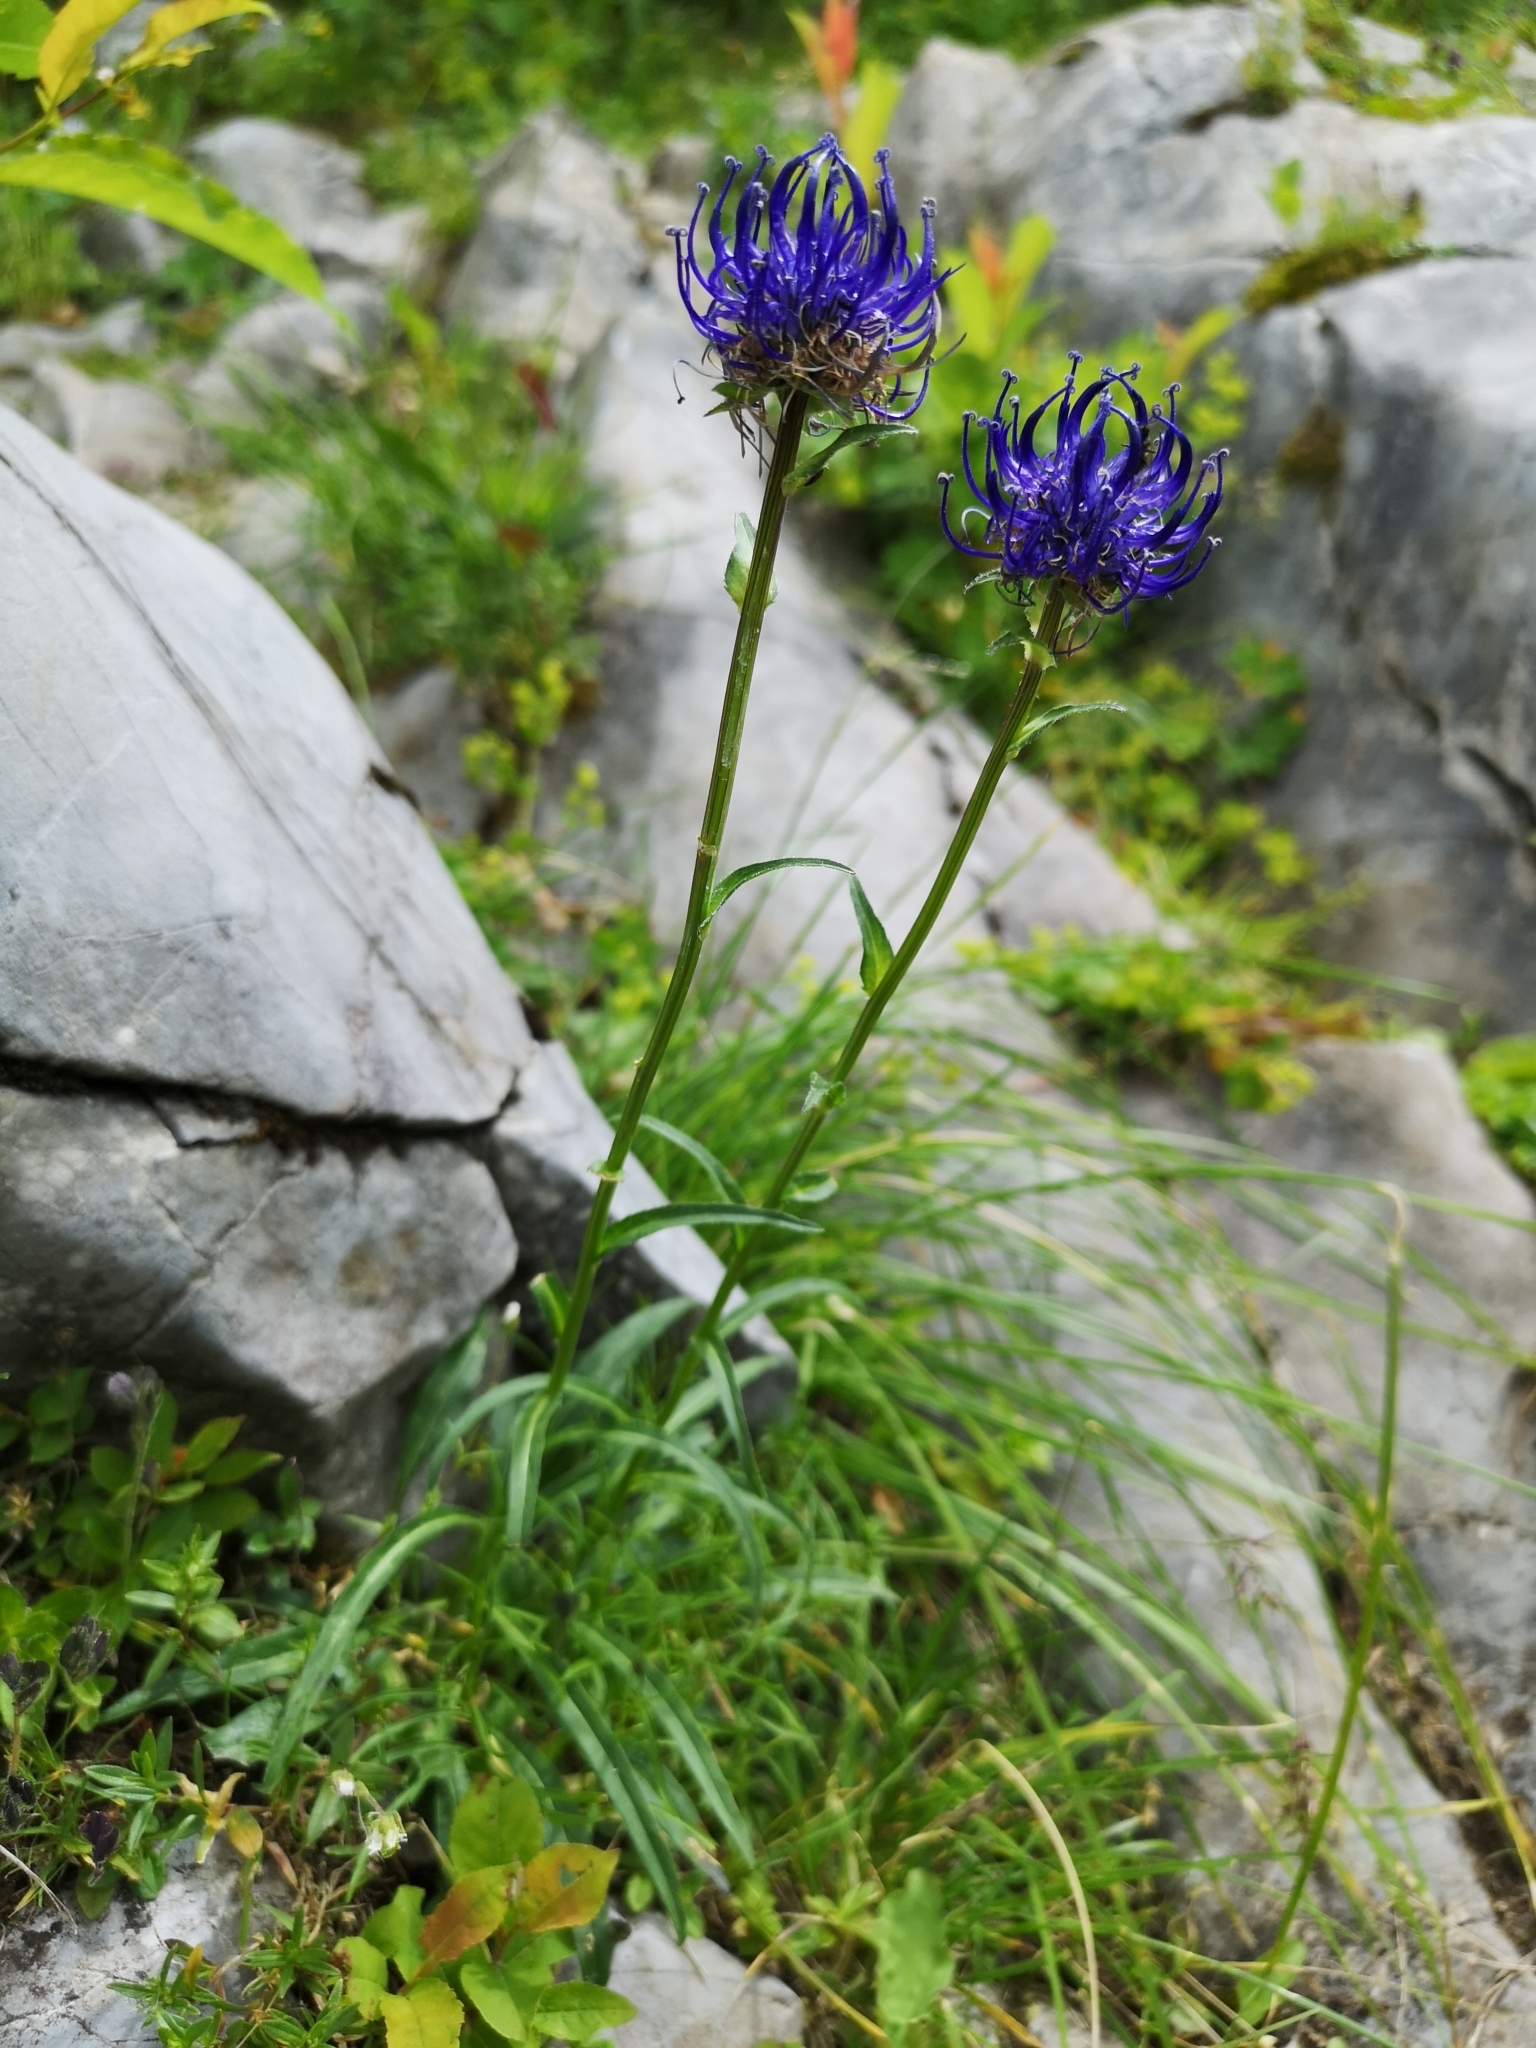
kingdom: Plantae
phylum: Tracheophyta
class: Magnoliopsida
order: Asterales
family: Campanulaceae
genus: Phyteuma
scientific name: Phyteuma orbiculare
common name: Round-headed rampion
